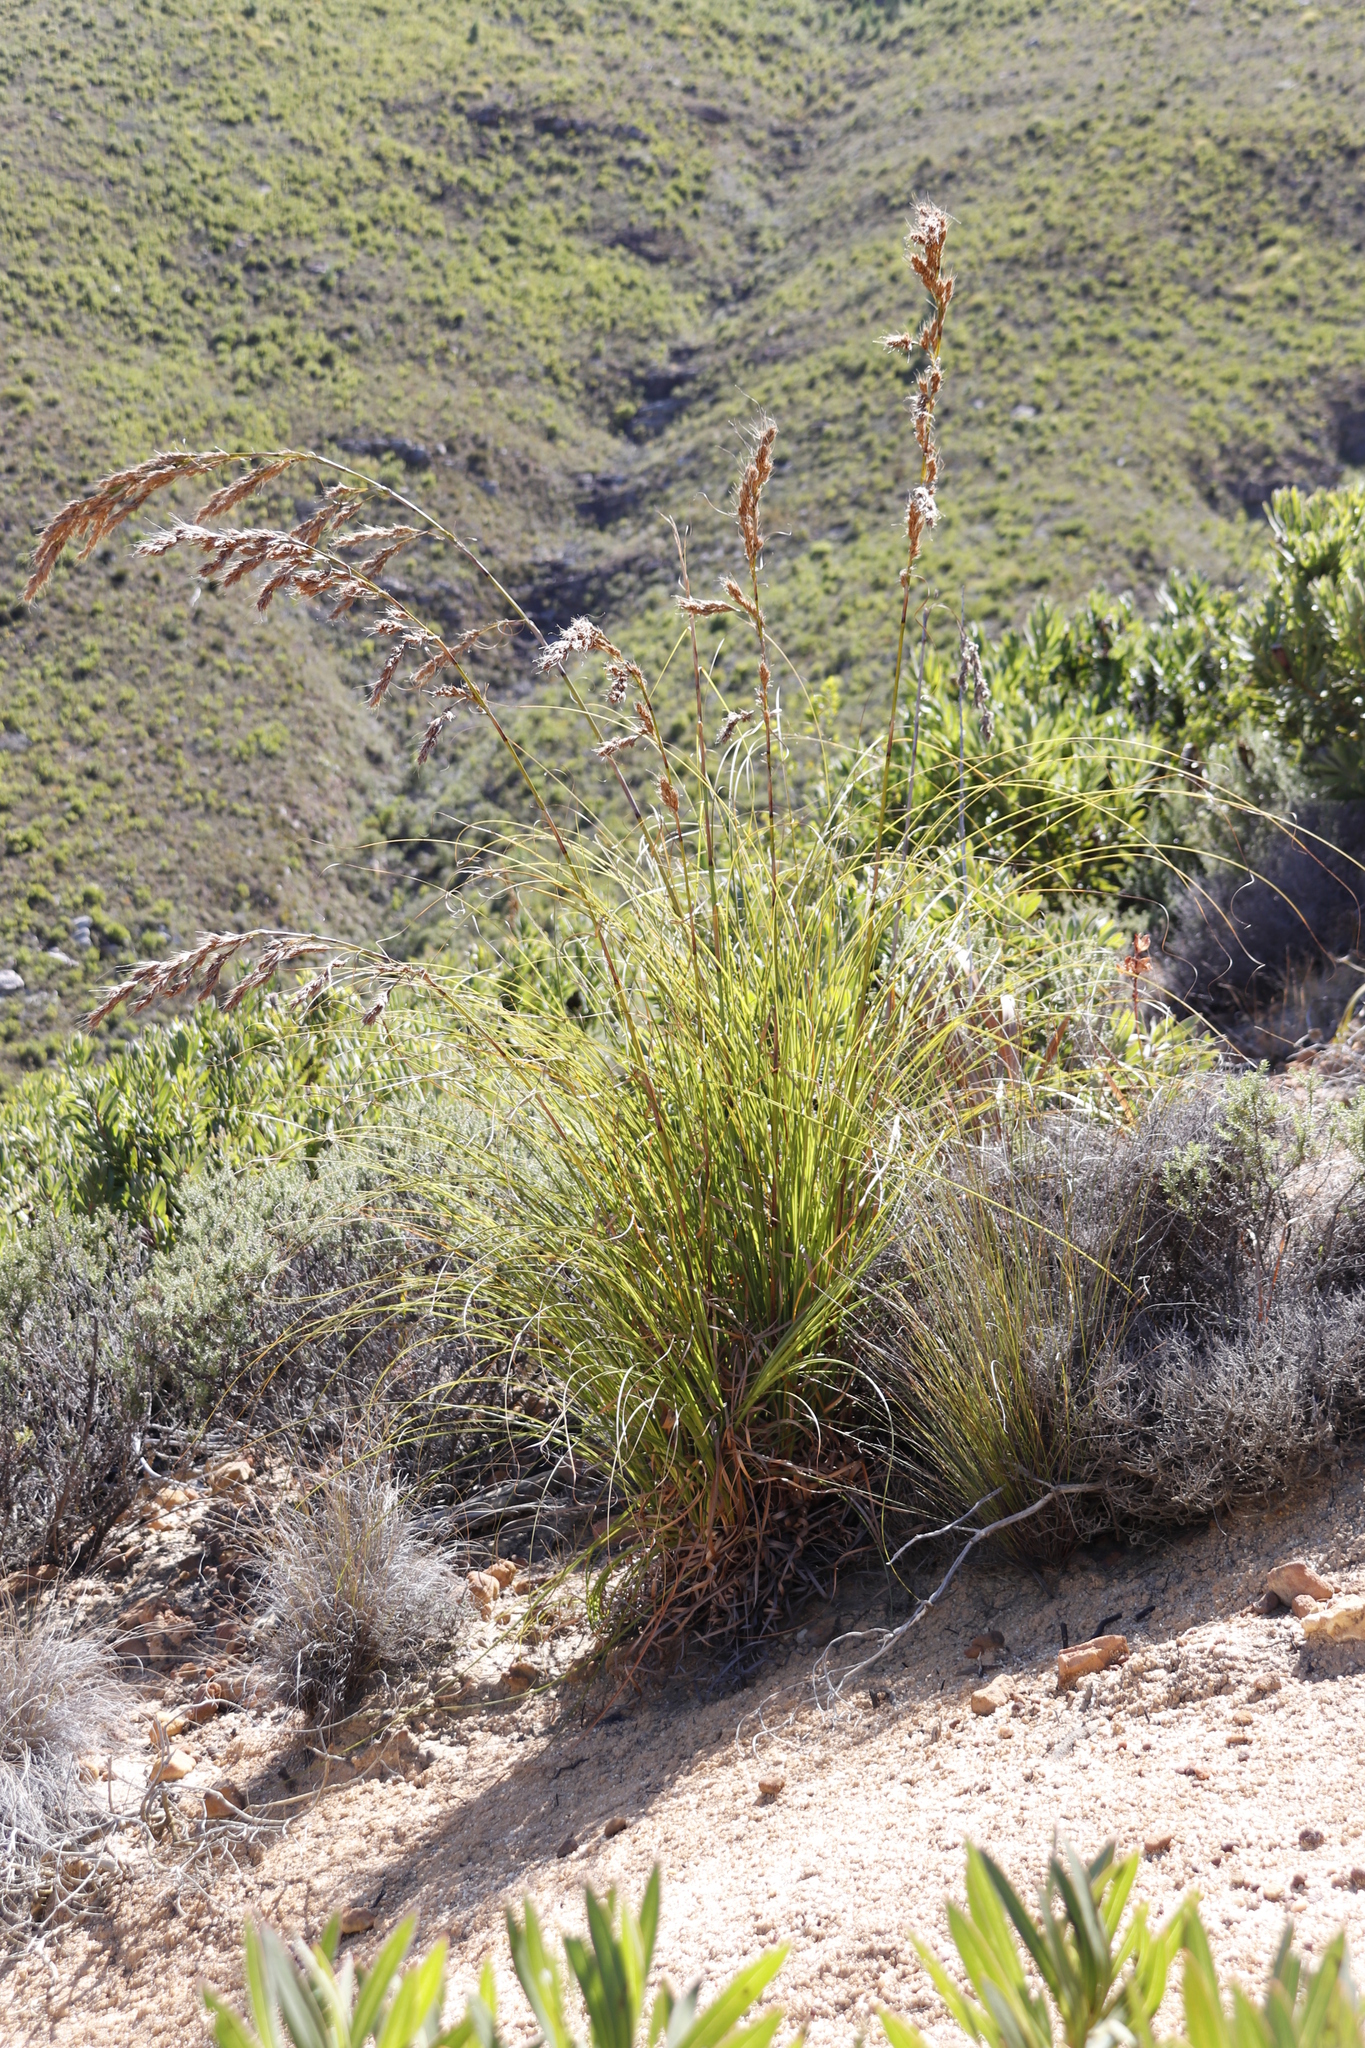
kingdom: Plantae
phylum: Tracheophyta
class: Liliopsida
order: Poales
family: Cyperaceae
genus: Tetraria
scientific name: Tetraria involucrata
